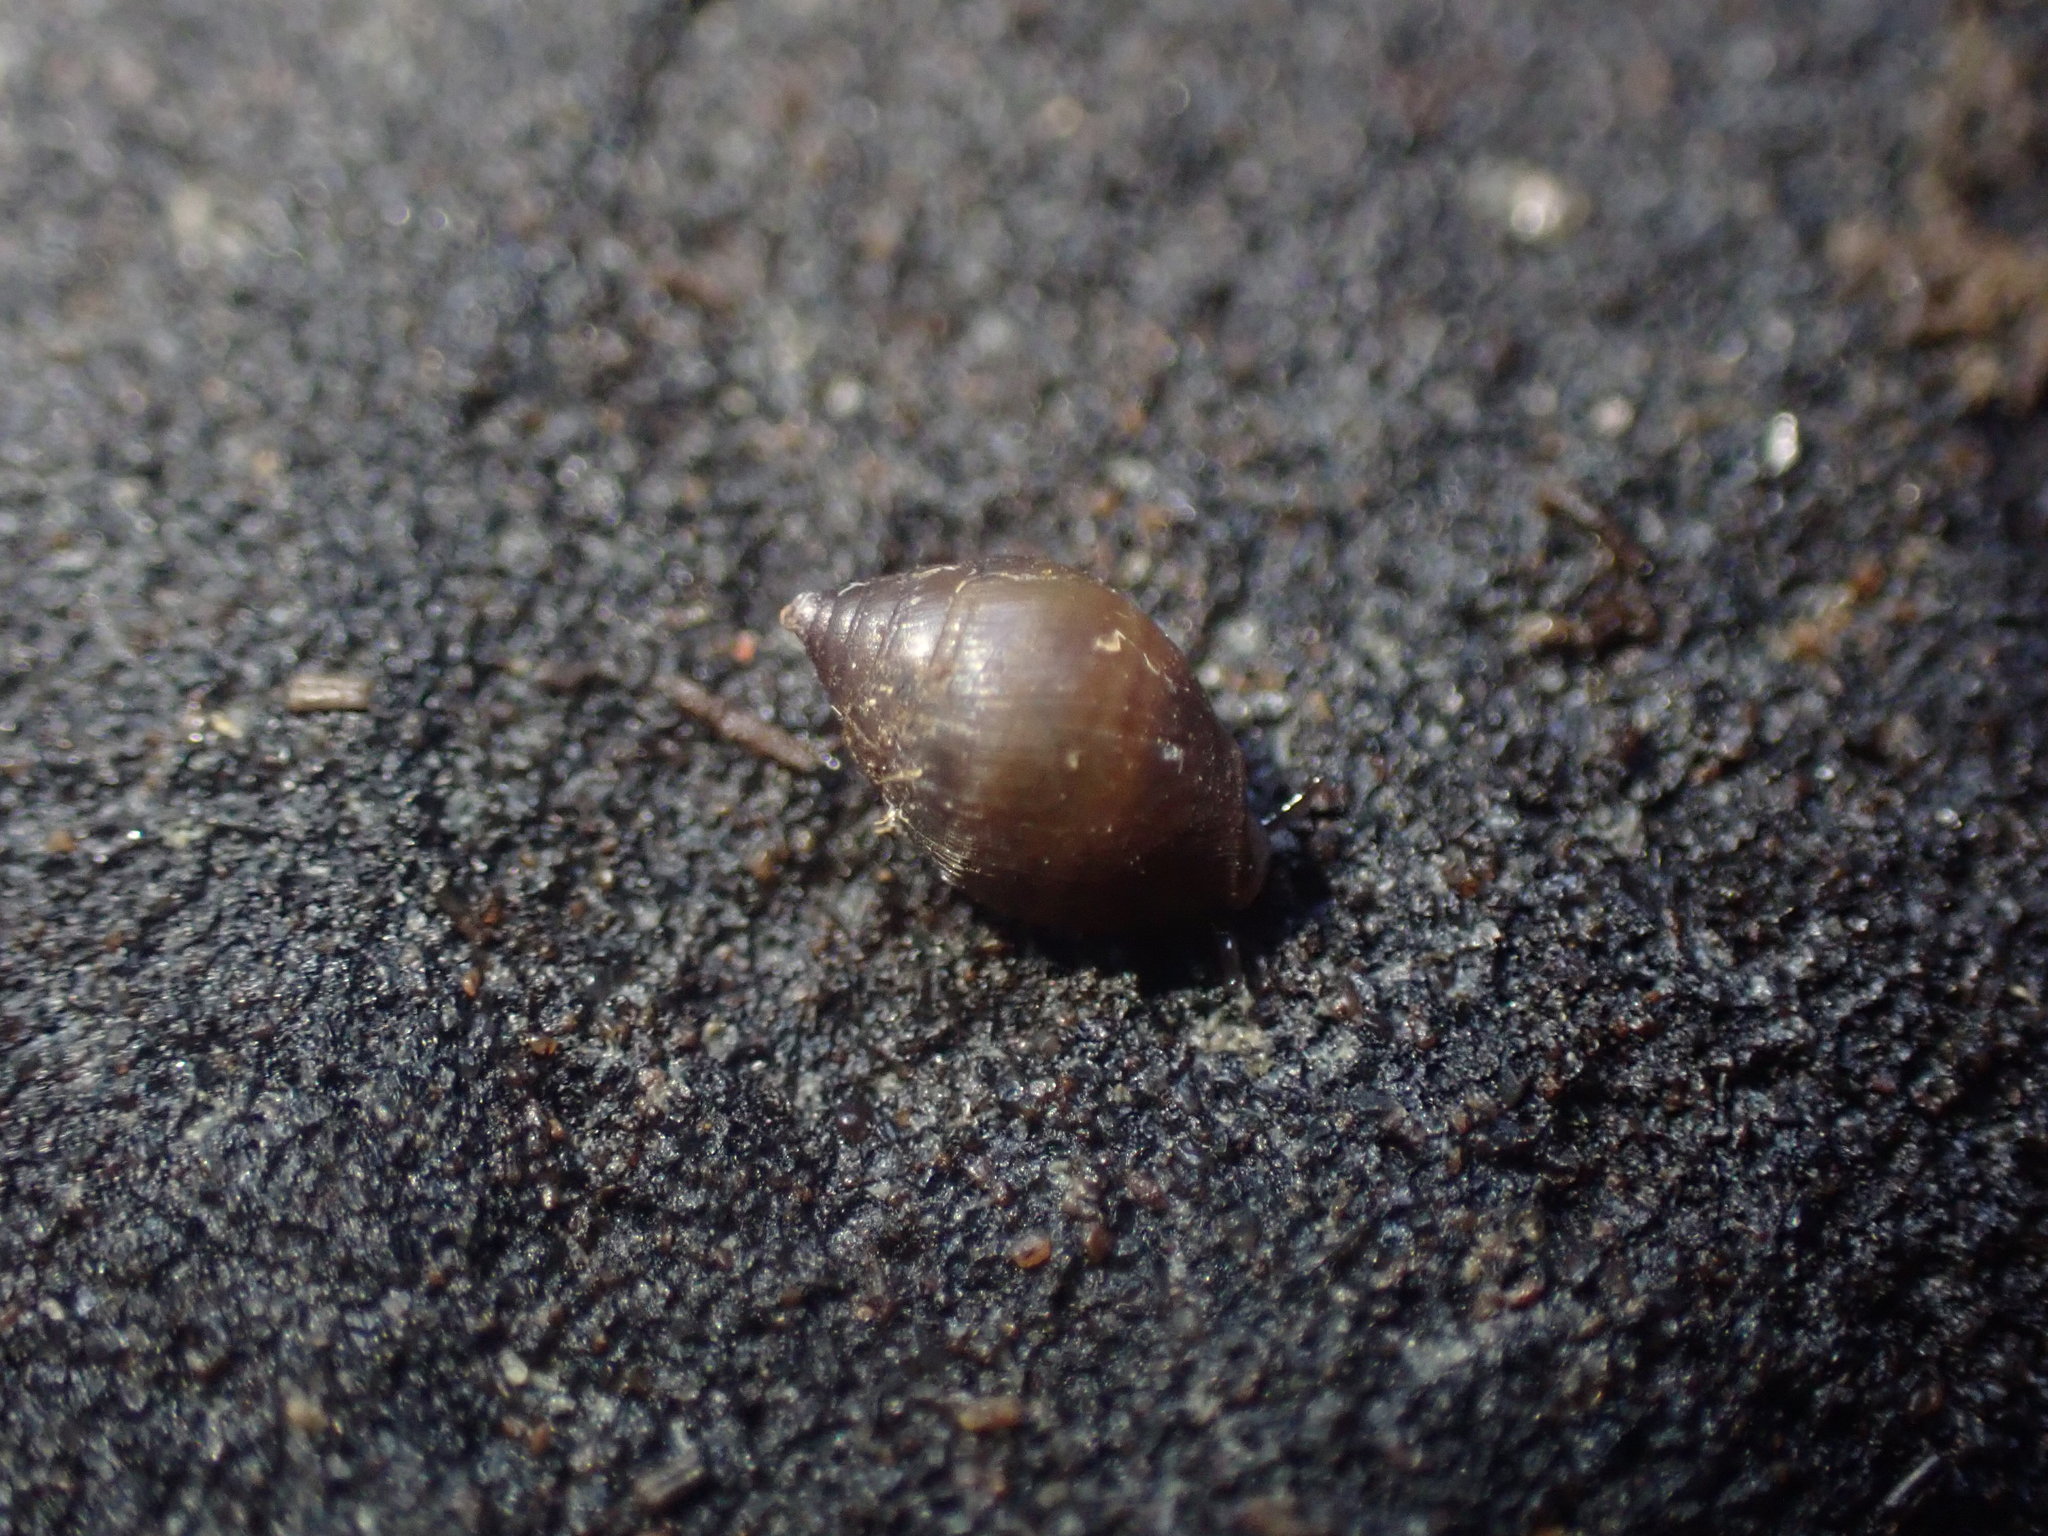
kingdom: Animalia
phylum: Mollusca
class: Gastropoda
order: Ellobiida
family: Ellobiidae
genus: Pleuroloba
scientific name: Pleuroloba costellaris
